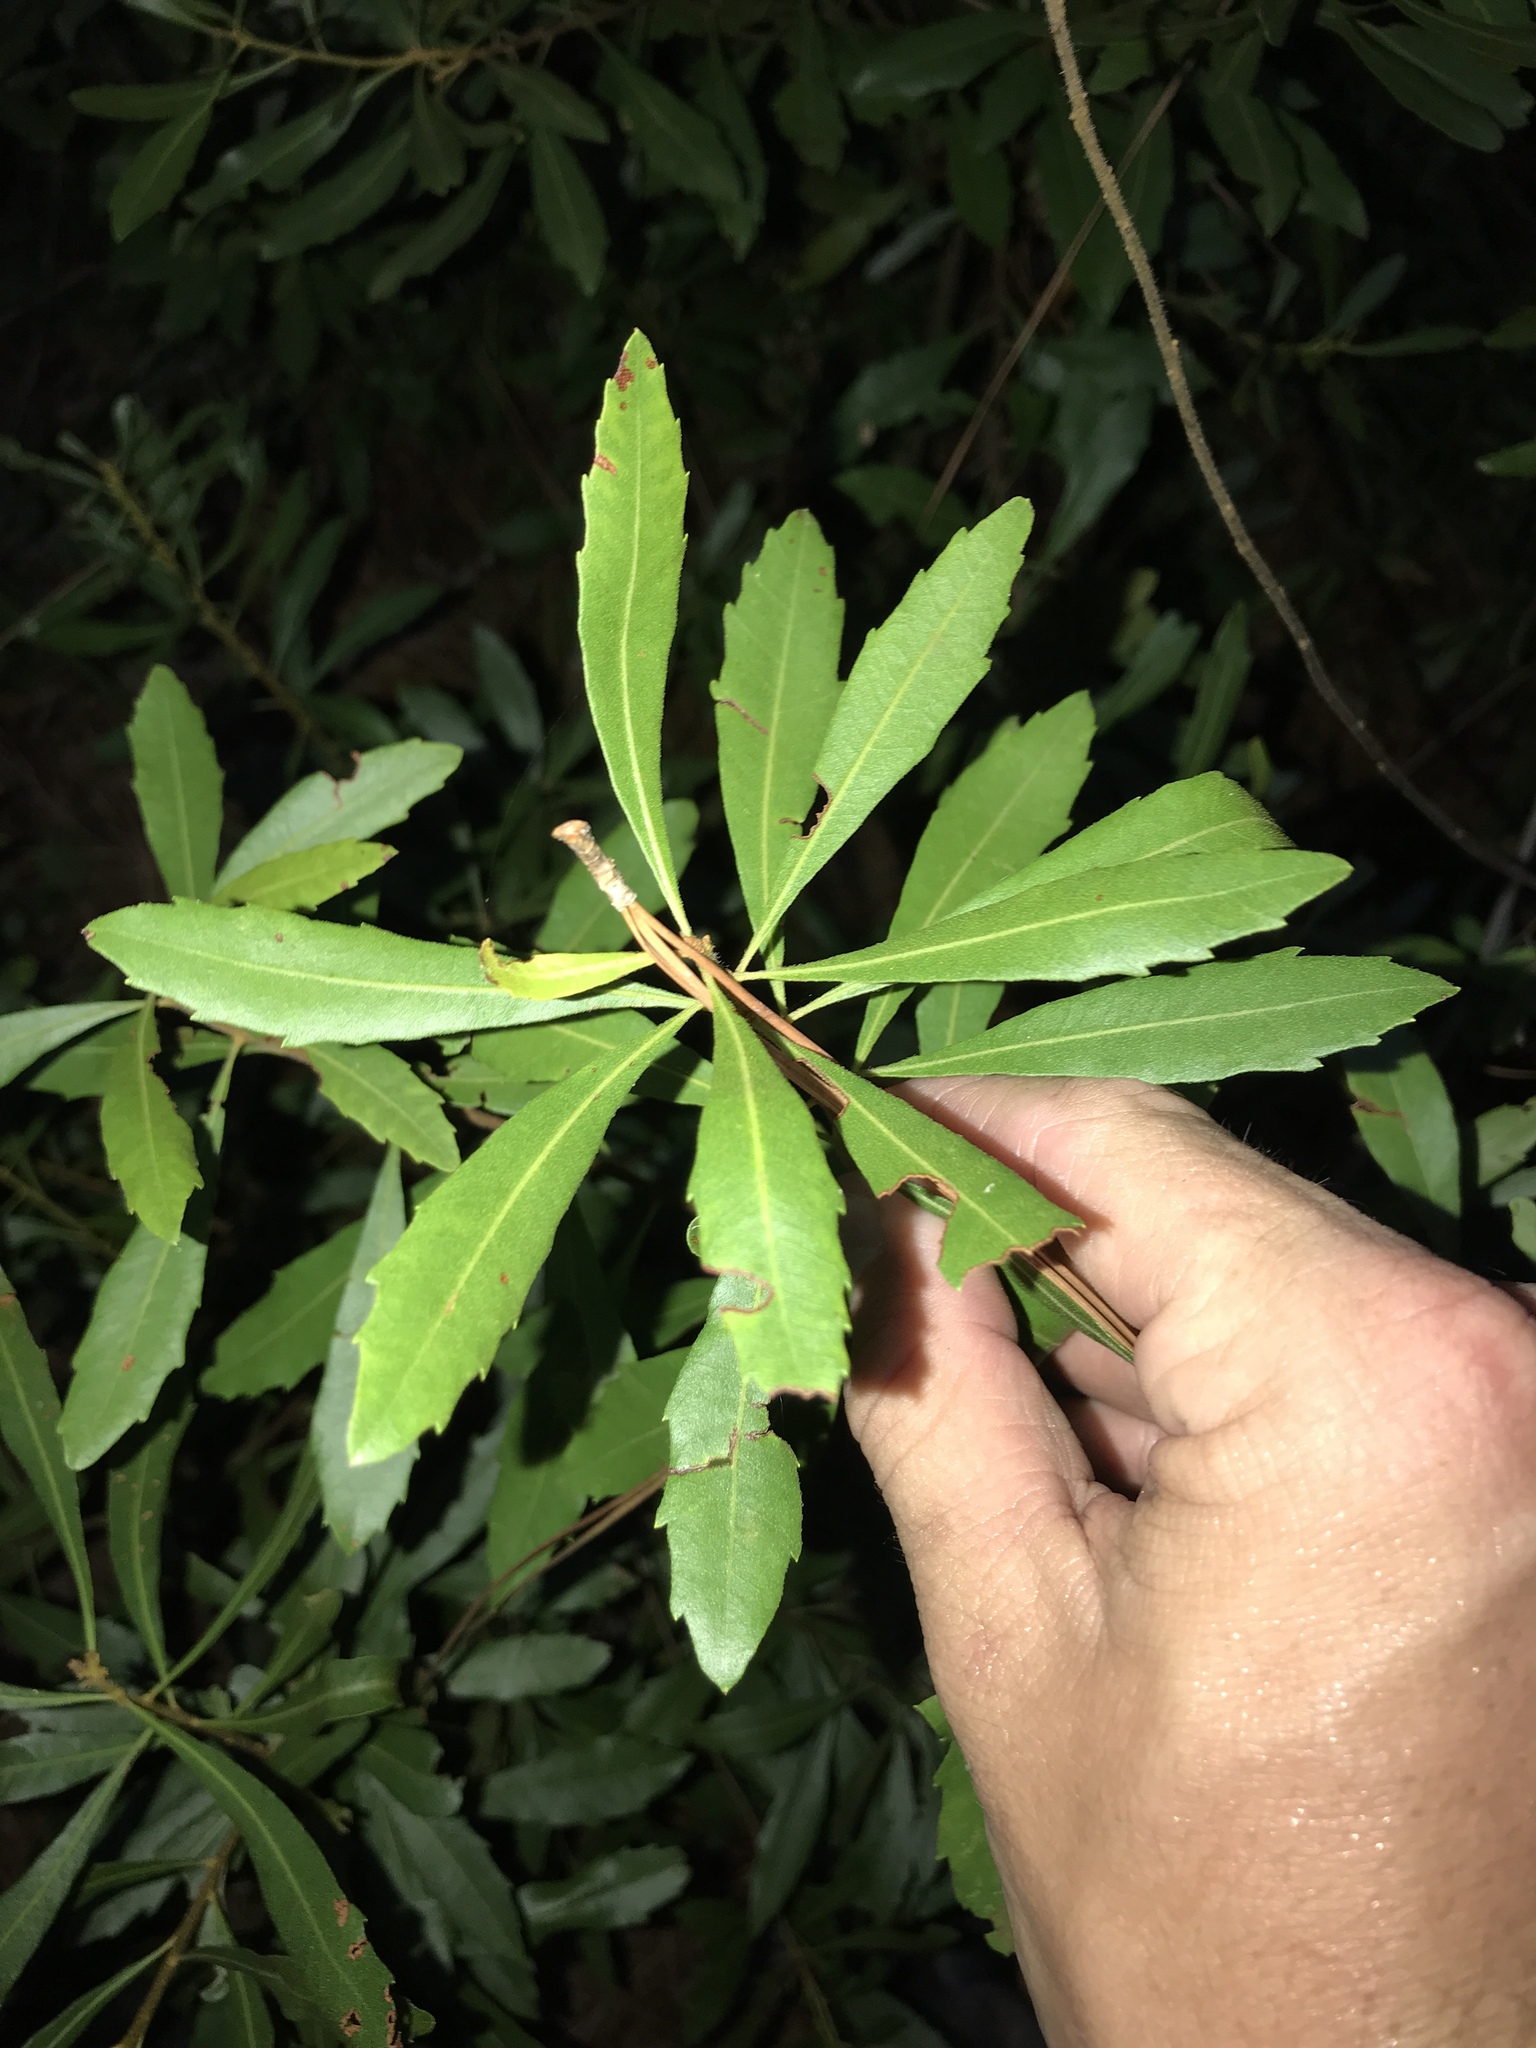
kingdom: Plantae
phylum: Tracheophyta
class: Magnoliopsida
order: Fagales
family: Myricaceae
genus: Morella
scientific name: Morella cerifera
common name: Wax myrtle
